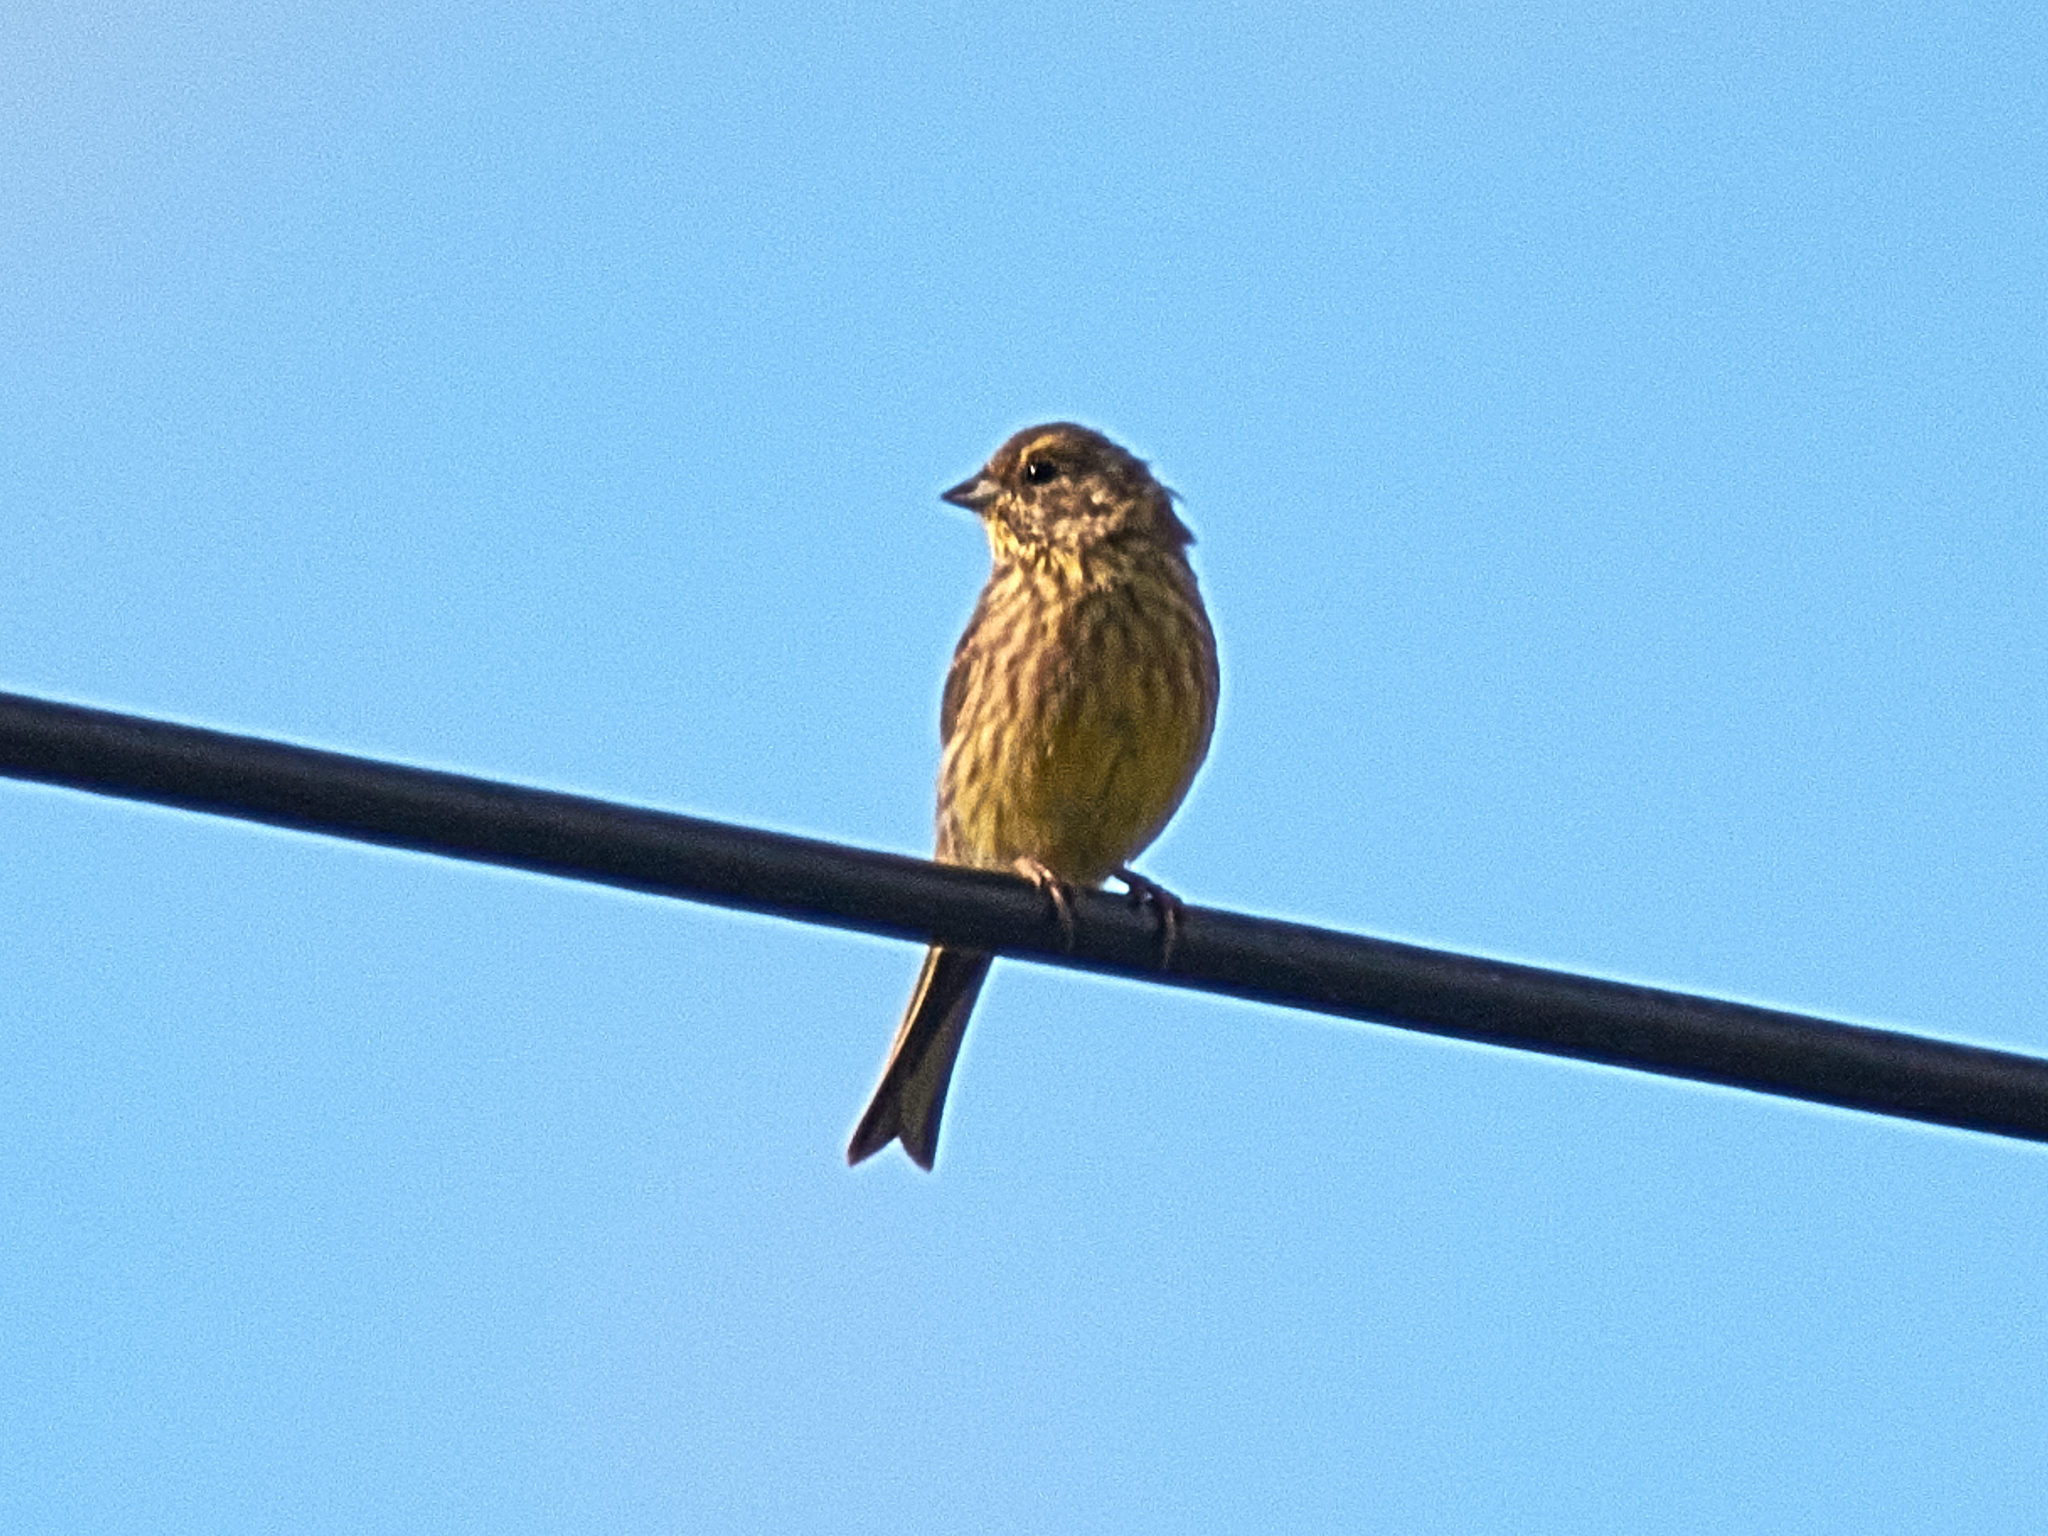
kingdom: Animalia
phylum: Chordata
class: Aves
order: Passeriformes
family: Emberizidae
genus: Emberiza
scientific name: Emberiza citrinella
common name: Yellowhammer
